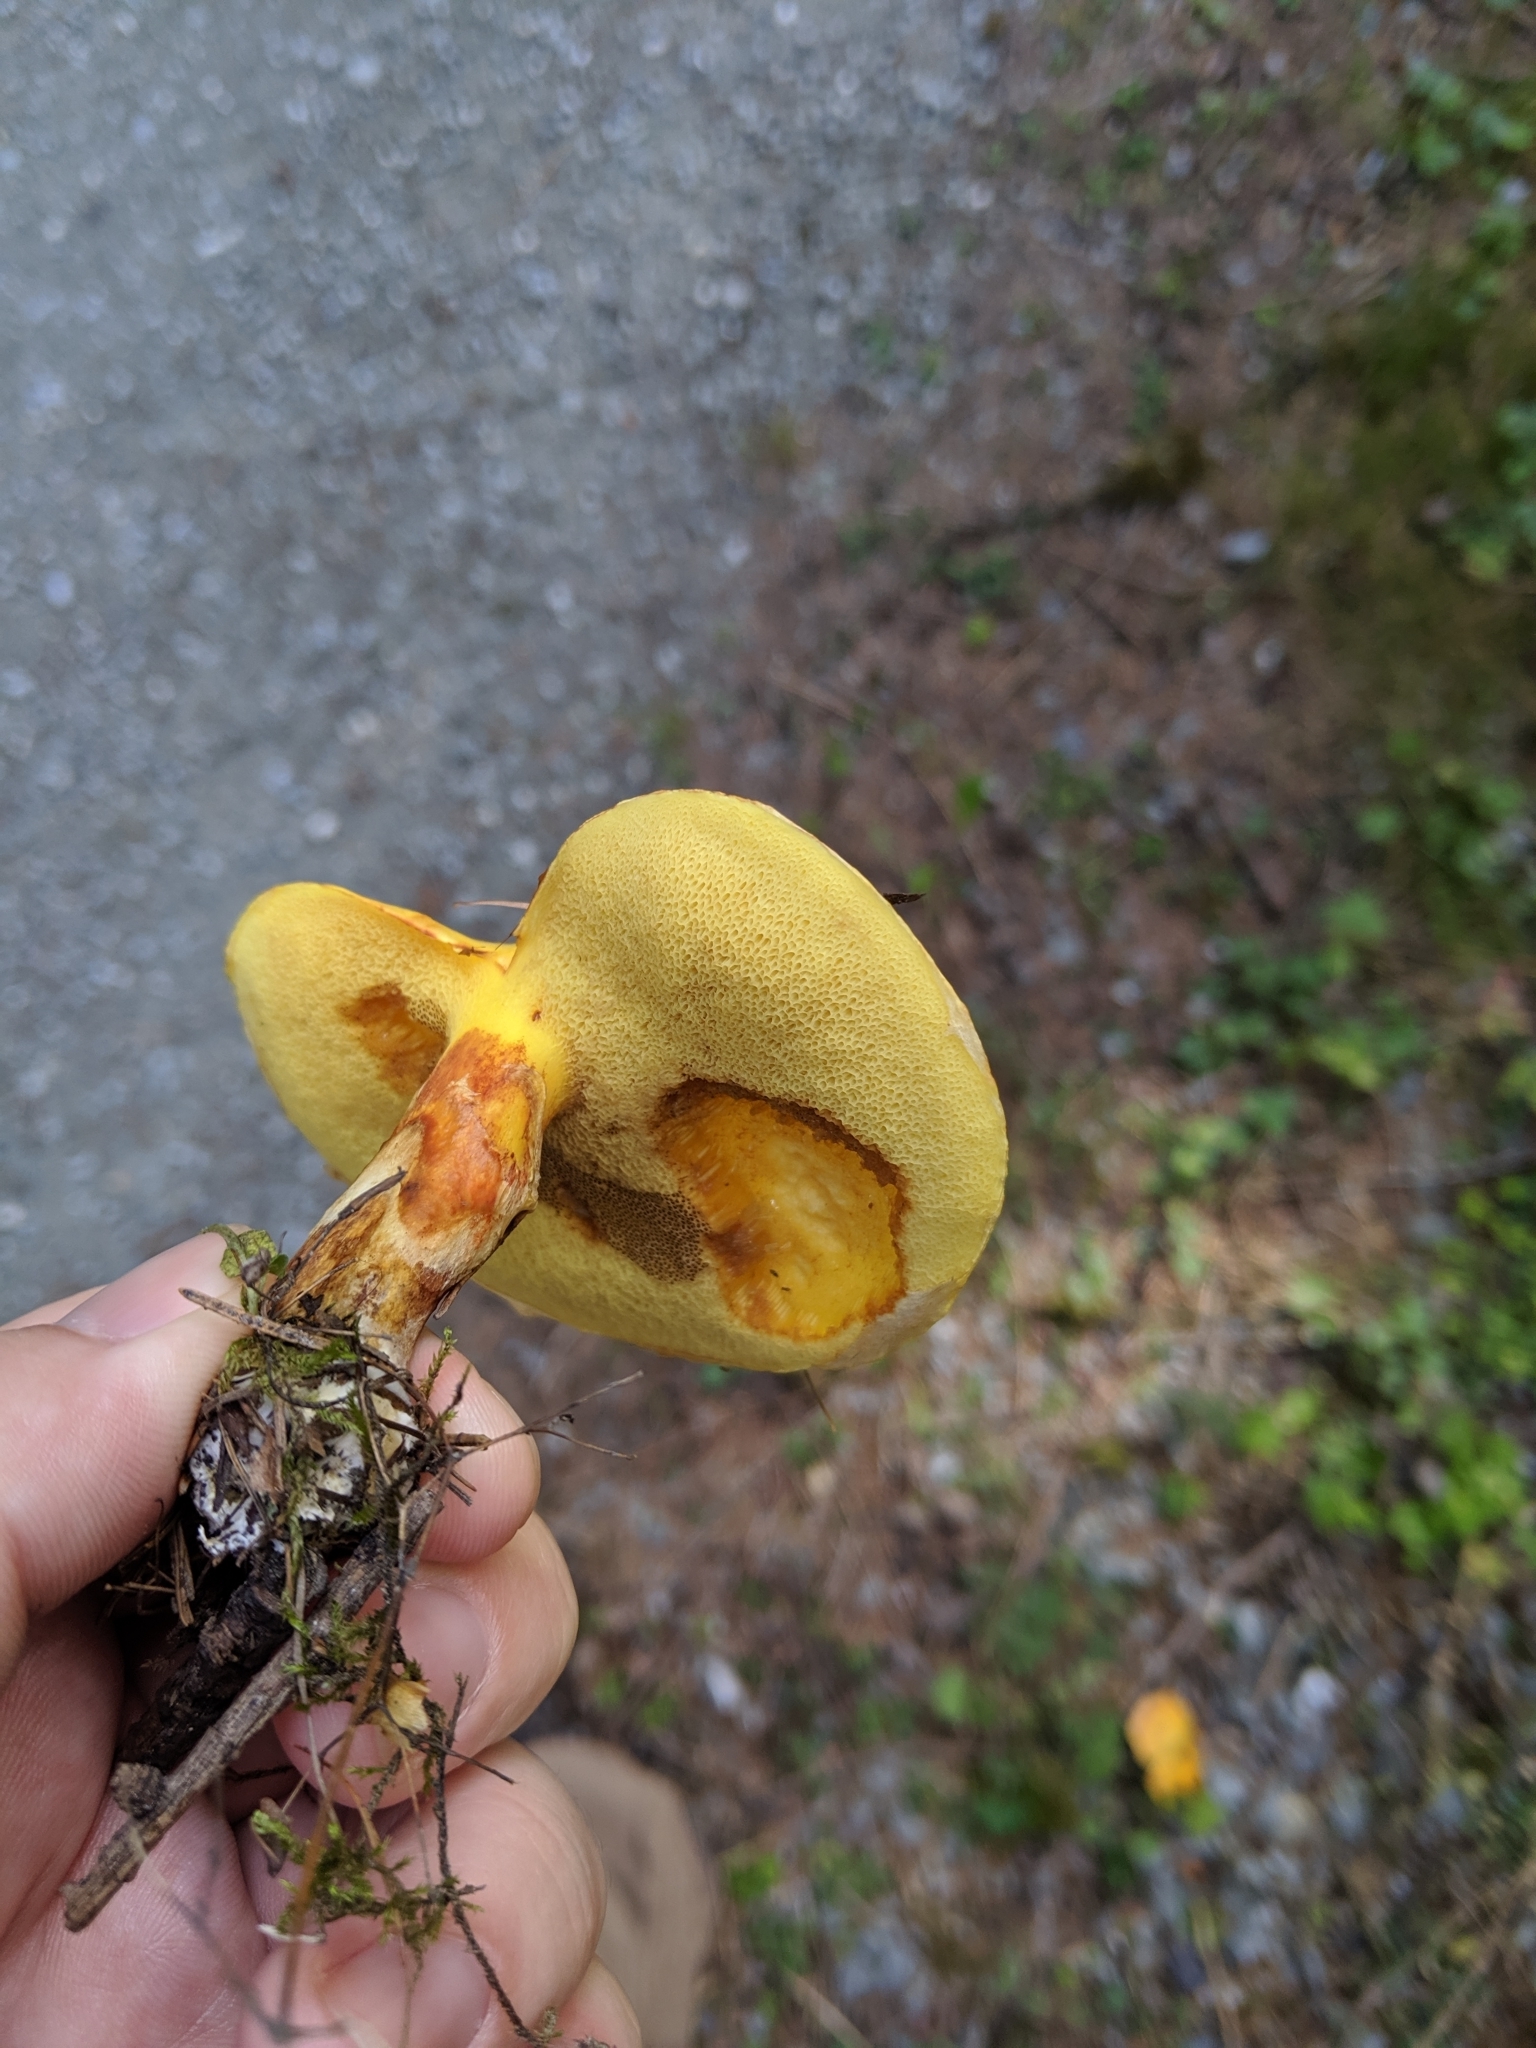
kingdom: Fungi
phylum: Basidiomycota
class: Agaricomycetes
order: Boletales
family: Suillaceae
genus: Suillus
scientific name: Suillus grevillei
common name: Larch bolete
